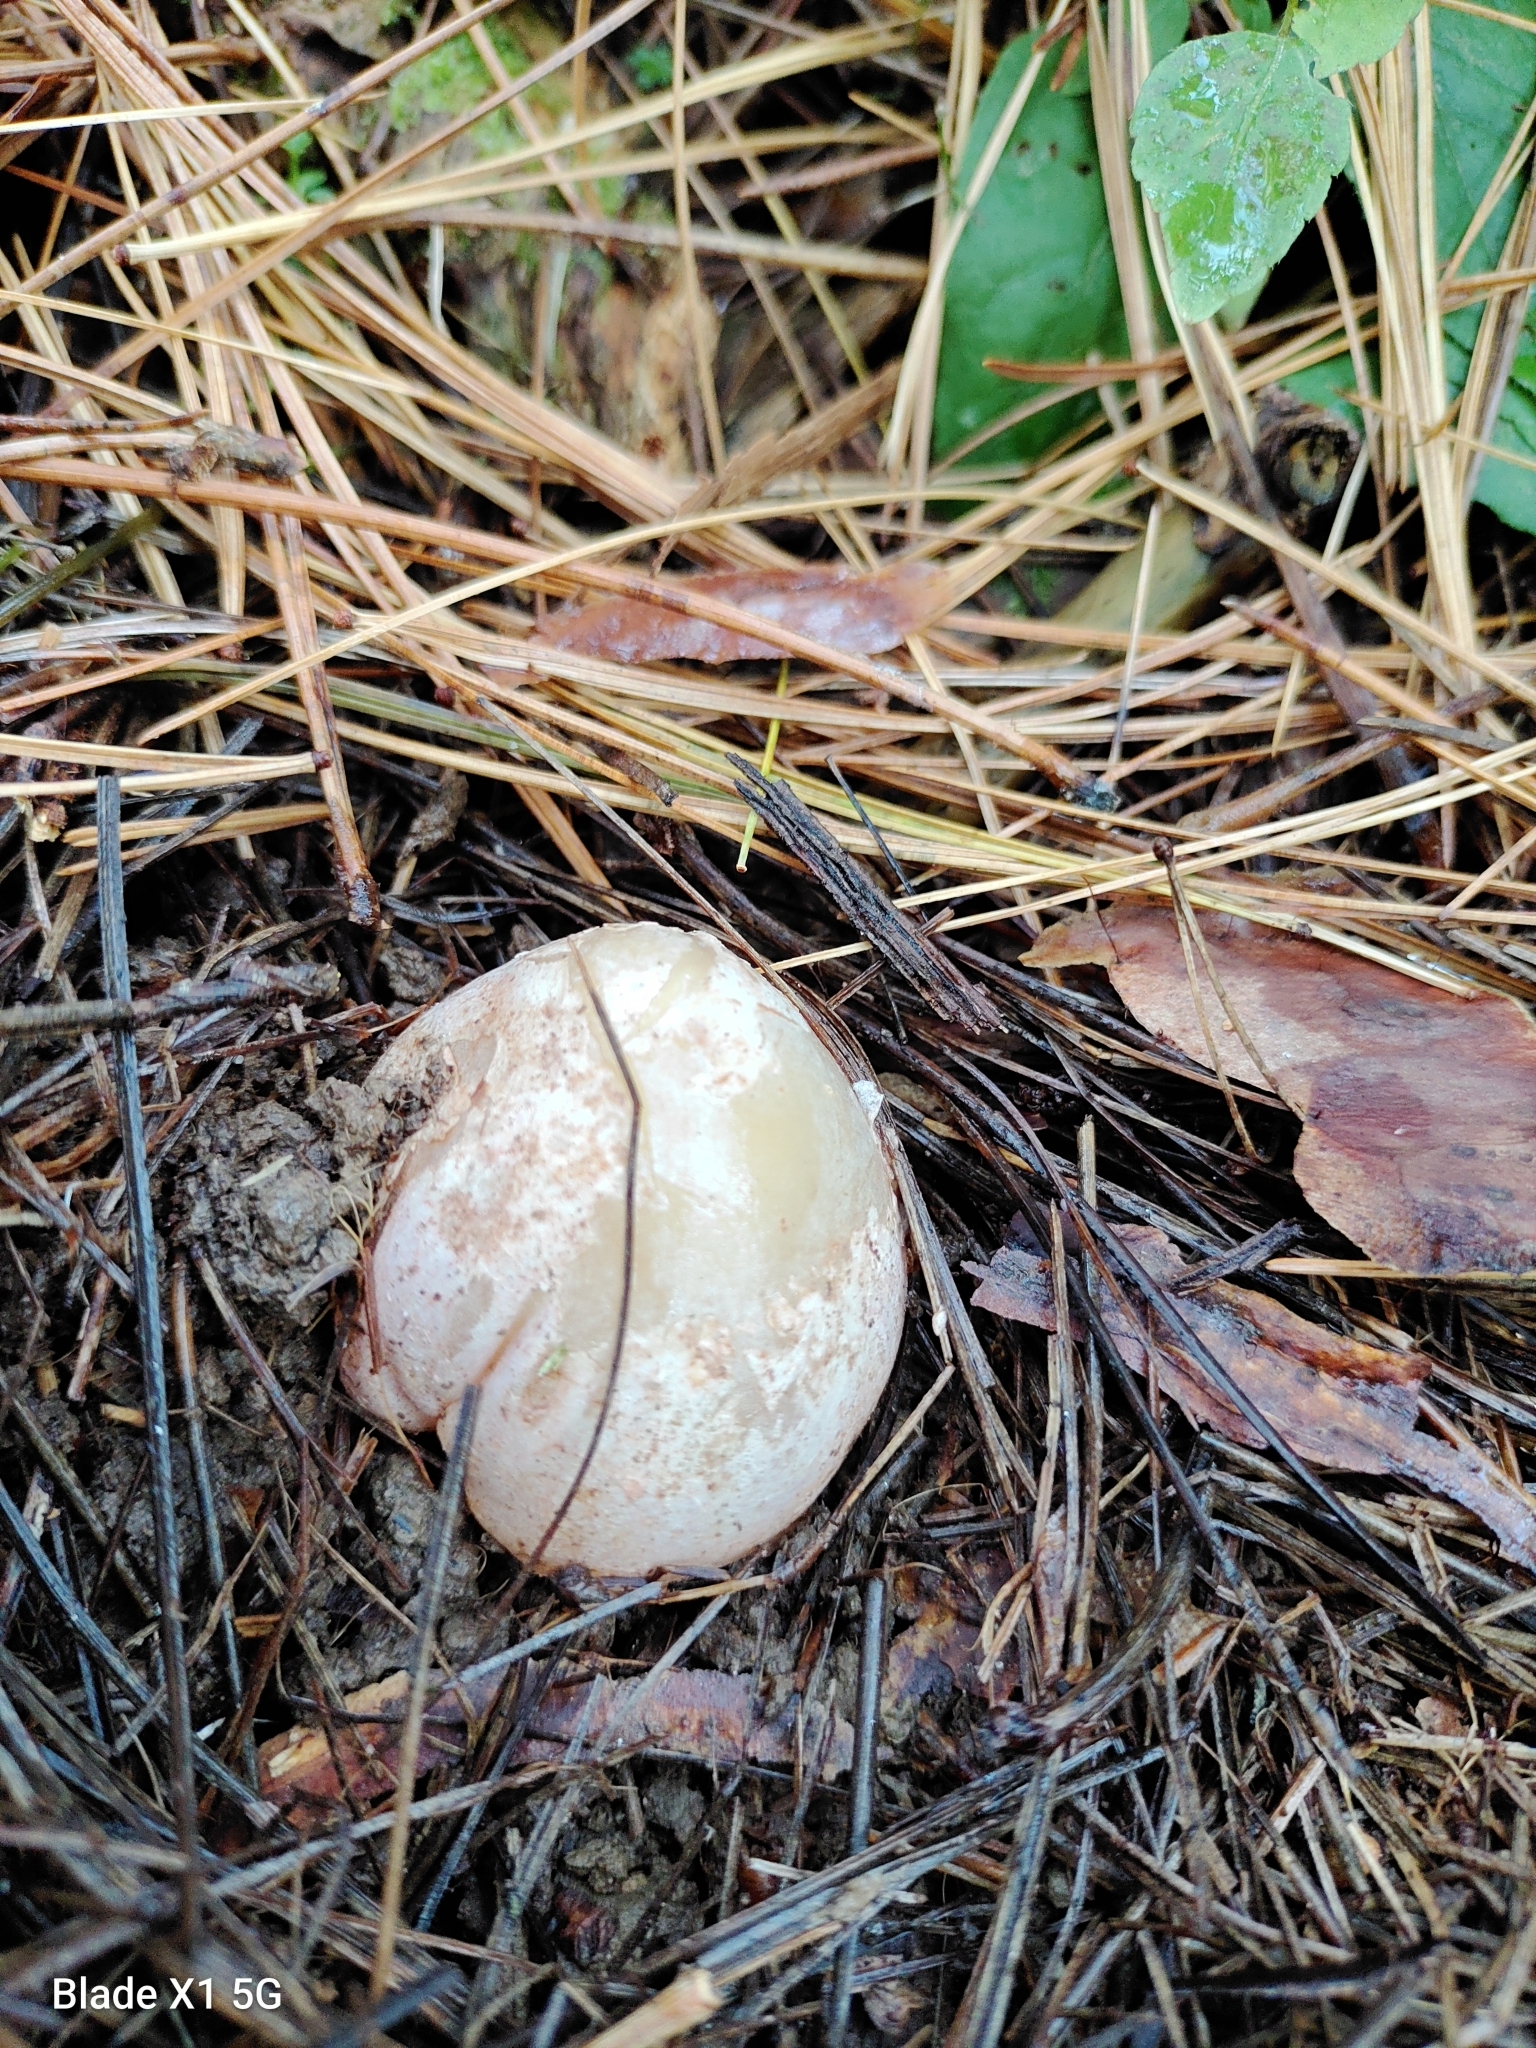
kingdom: Fungi
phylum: Basidiomycota
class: Agaricomycetes
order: Phallales
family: Phallaceae
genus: Phallus
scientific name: Phallus ravenelii
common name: Ravenel's stinkhorn
